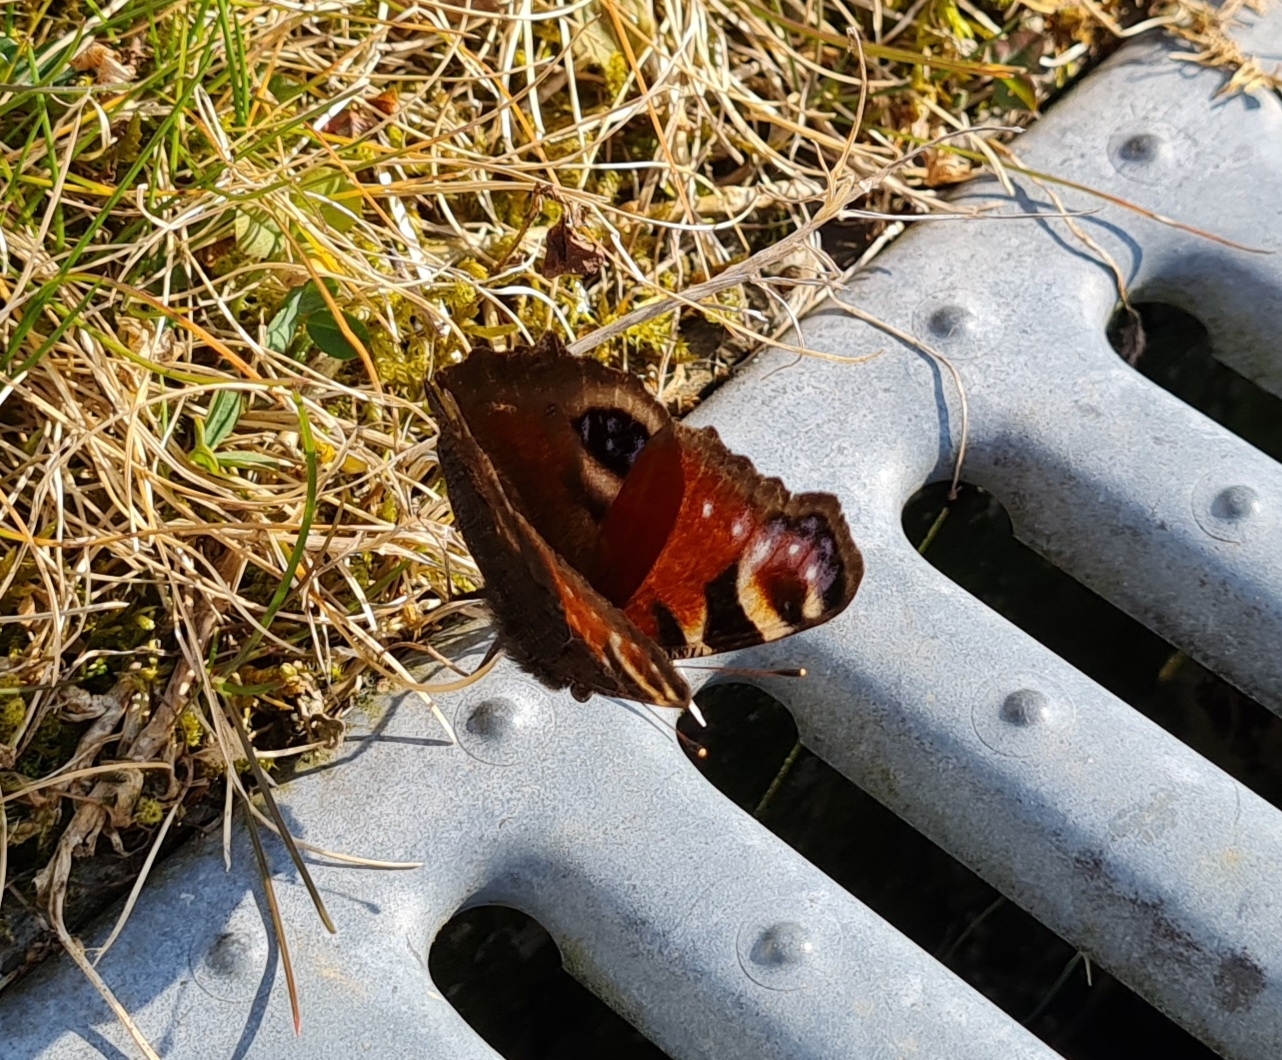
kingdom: Animalia
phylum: Arthropoda
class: Insecta
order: Lepidoptera
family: Nymphalidae
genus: Aglais
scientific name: Aglais io
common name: Peacock
